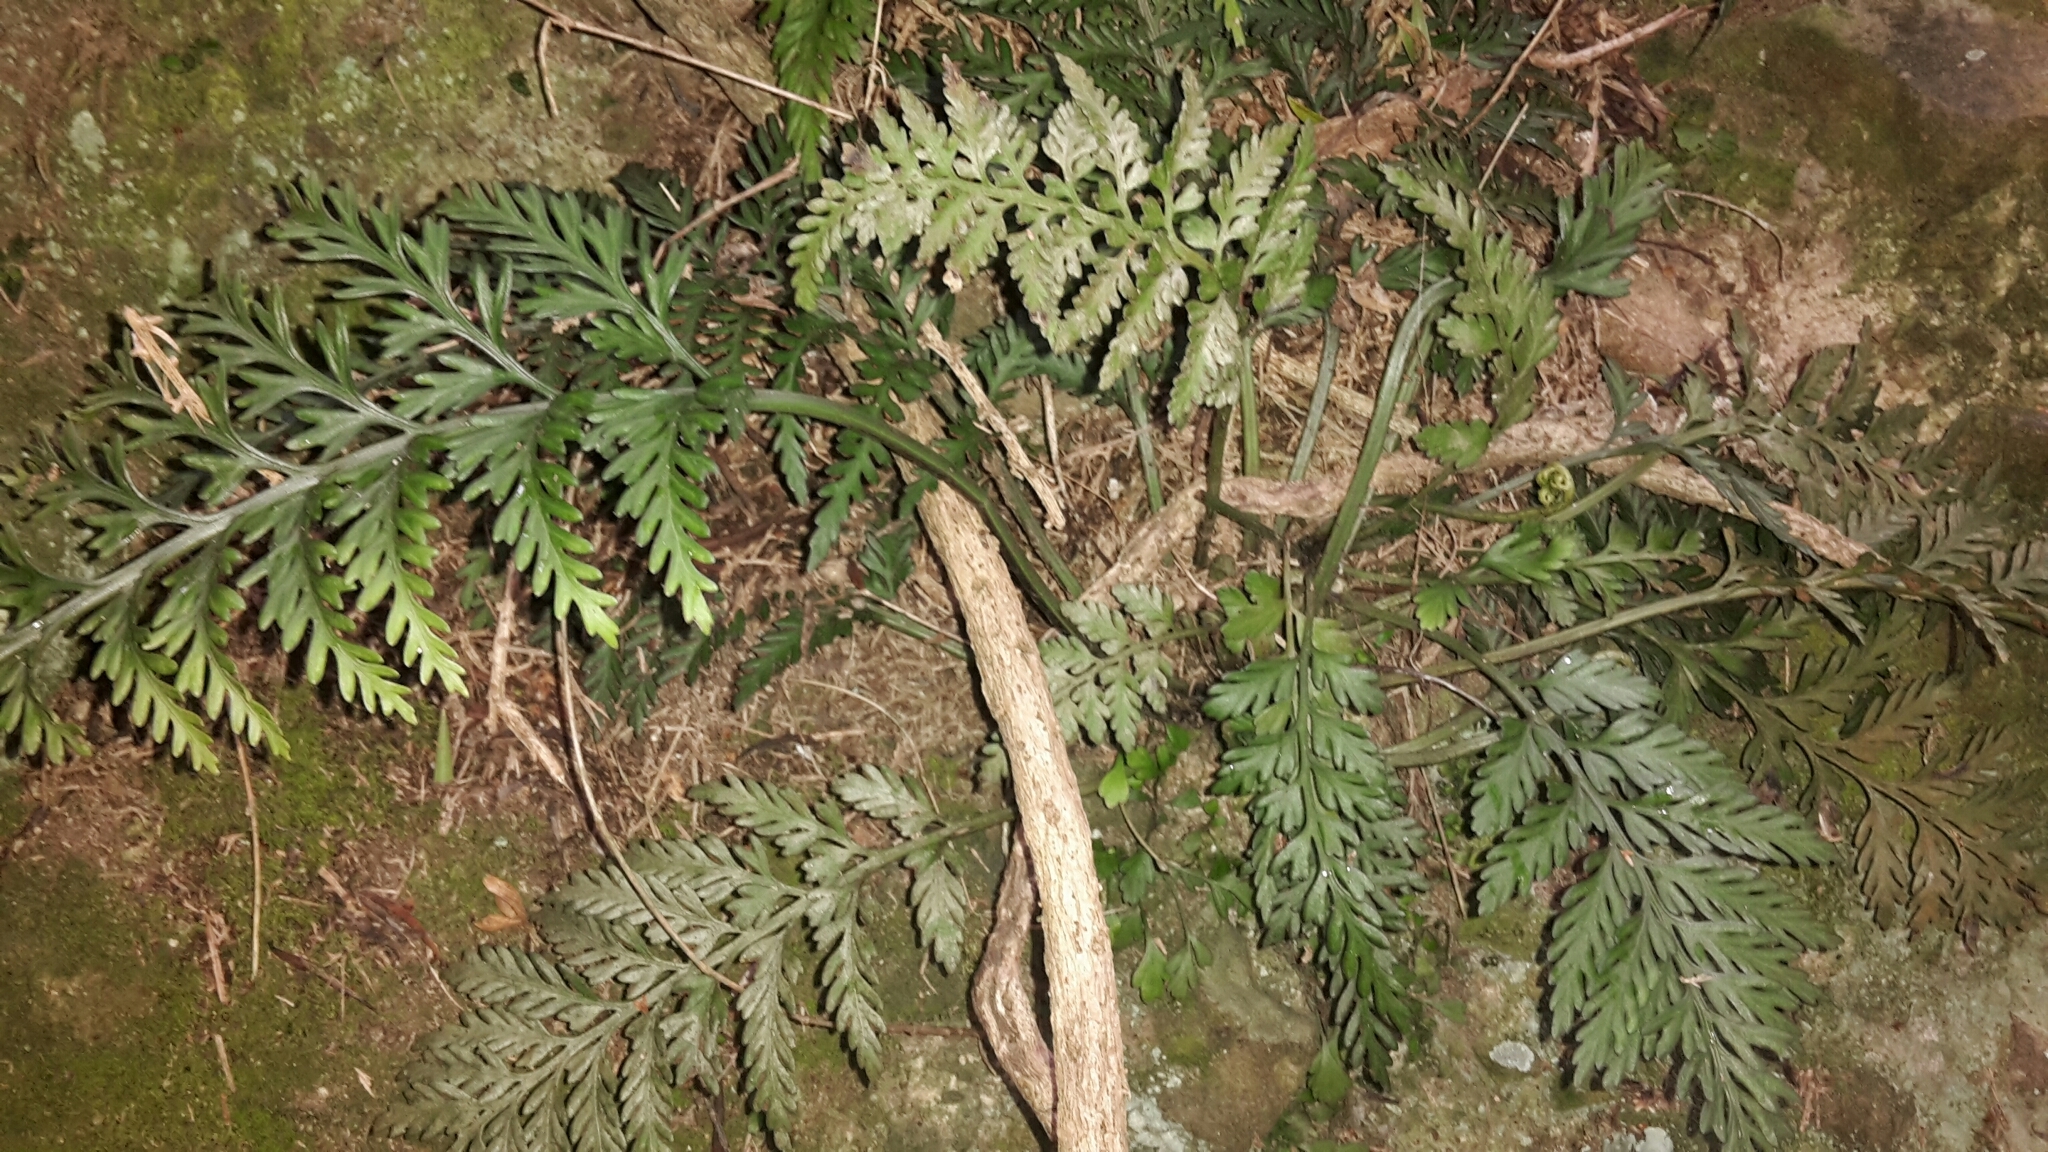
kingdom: Plantae
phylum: Tracheophyta
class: Polypodiopsida
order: Polypodiales
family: Aspleniaceae
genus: Asplenium
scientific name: Asplenium appendiculatum
